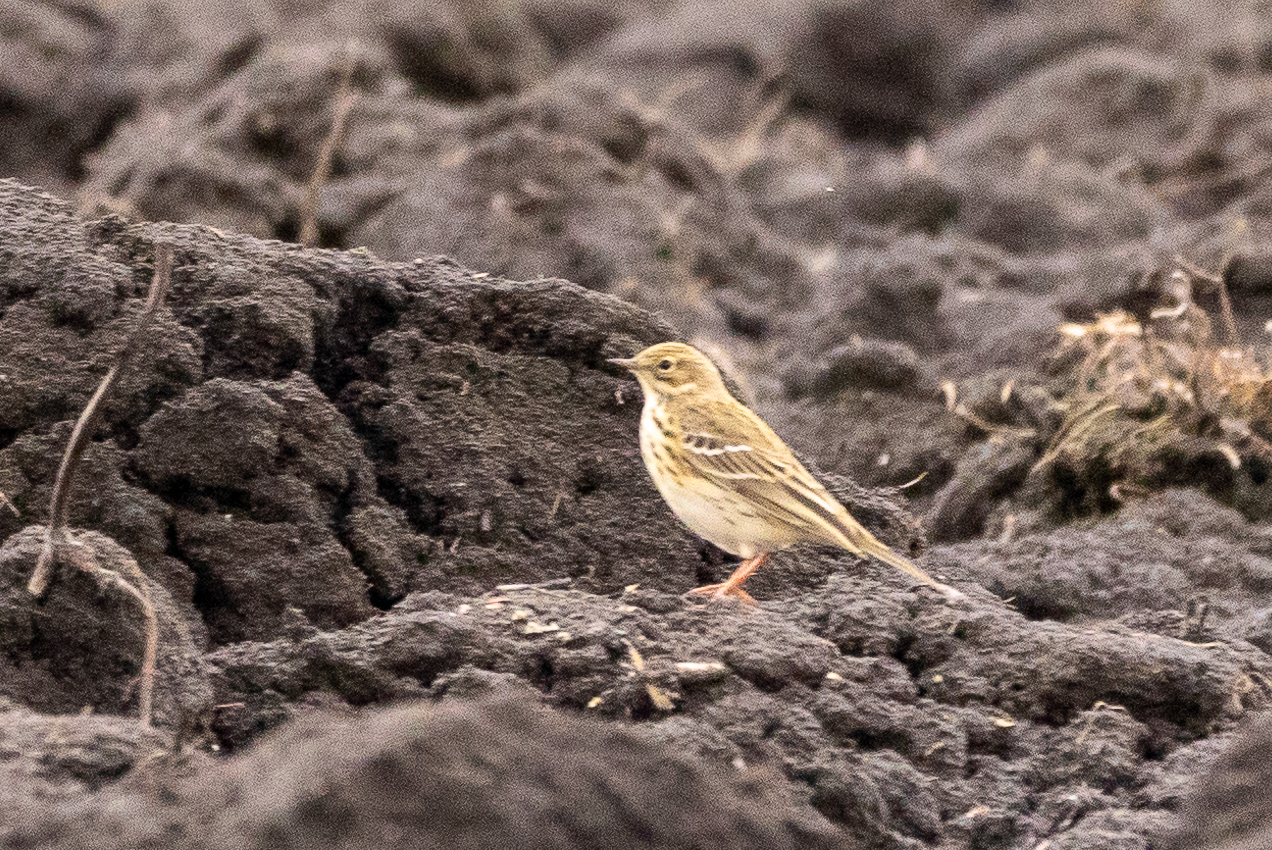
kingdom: Animalia
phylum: Chordata
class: Aves
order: Passeriformes
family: Motacillidae
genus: Anthus
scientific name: Anthus trivialis
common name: Tree pipit
